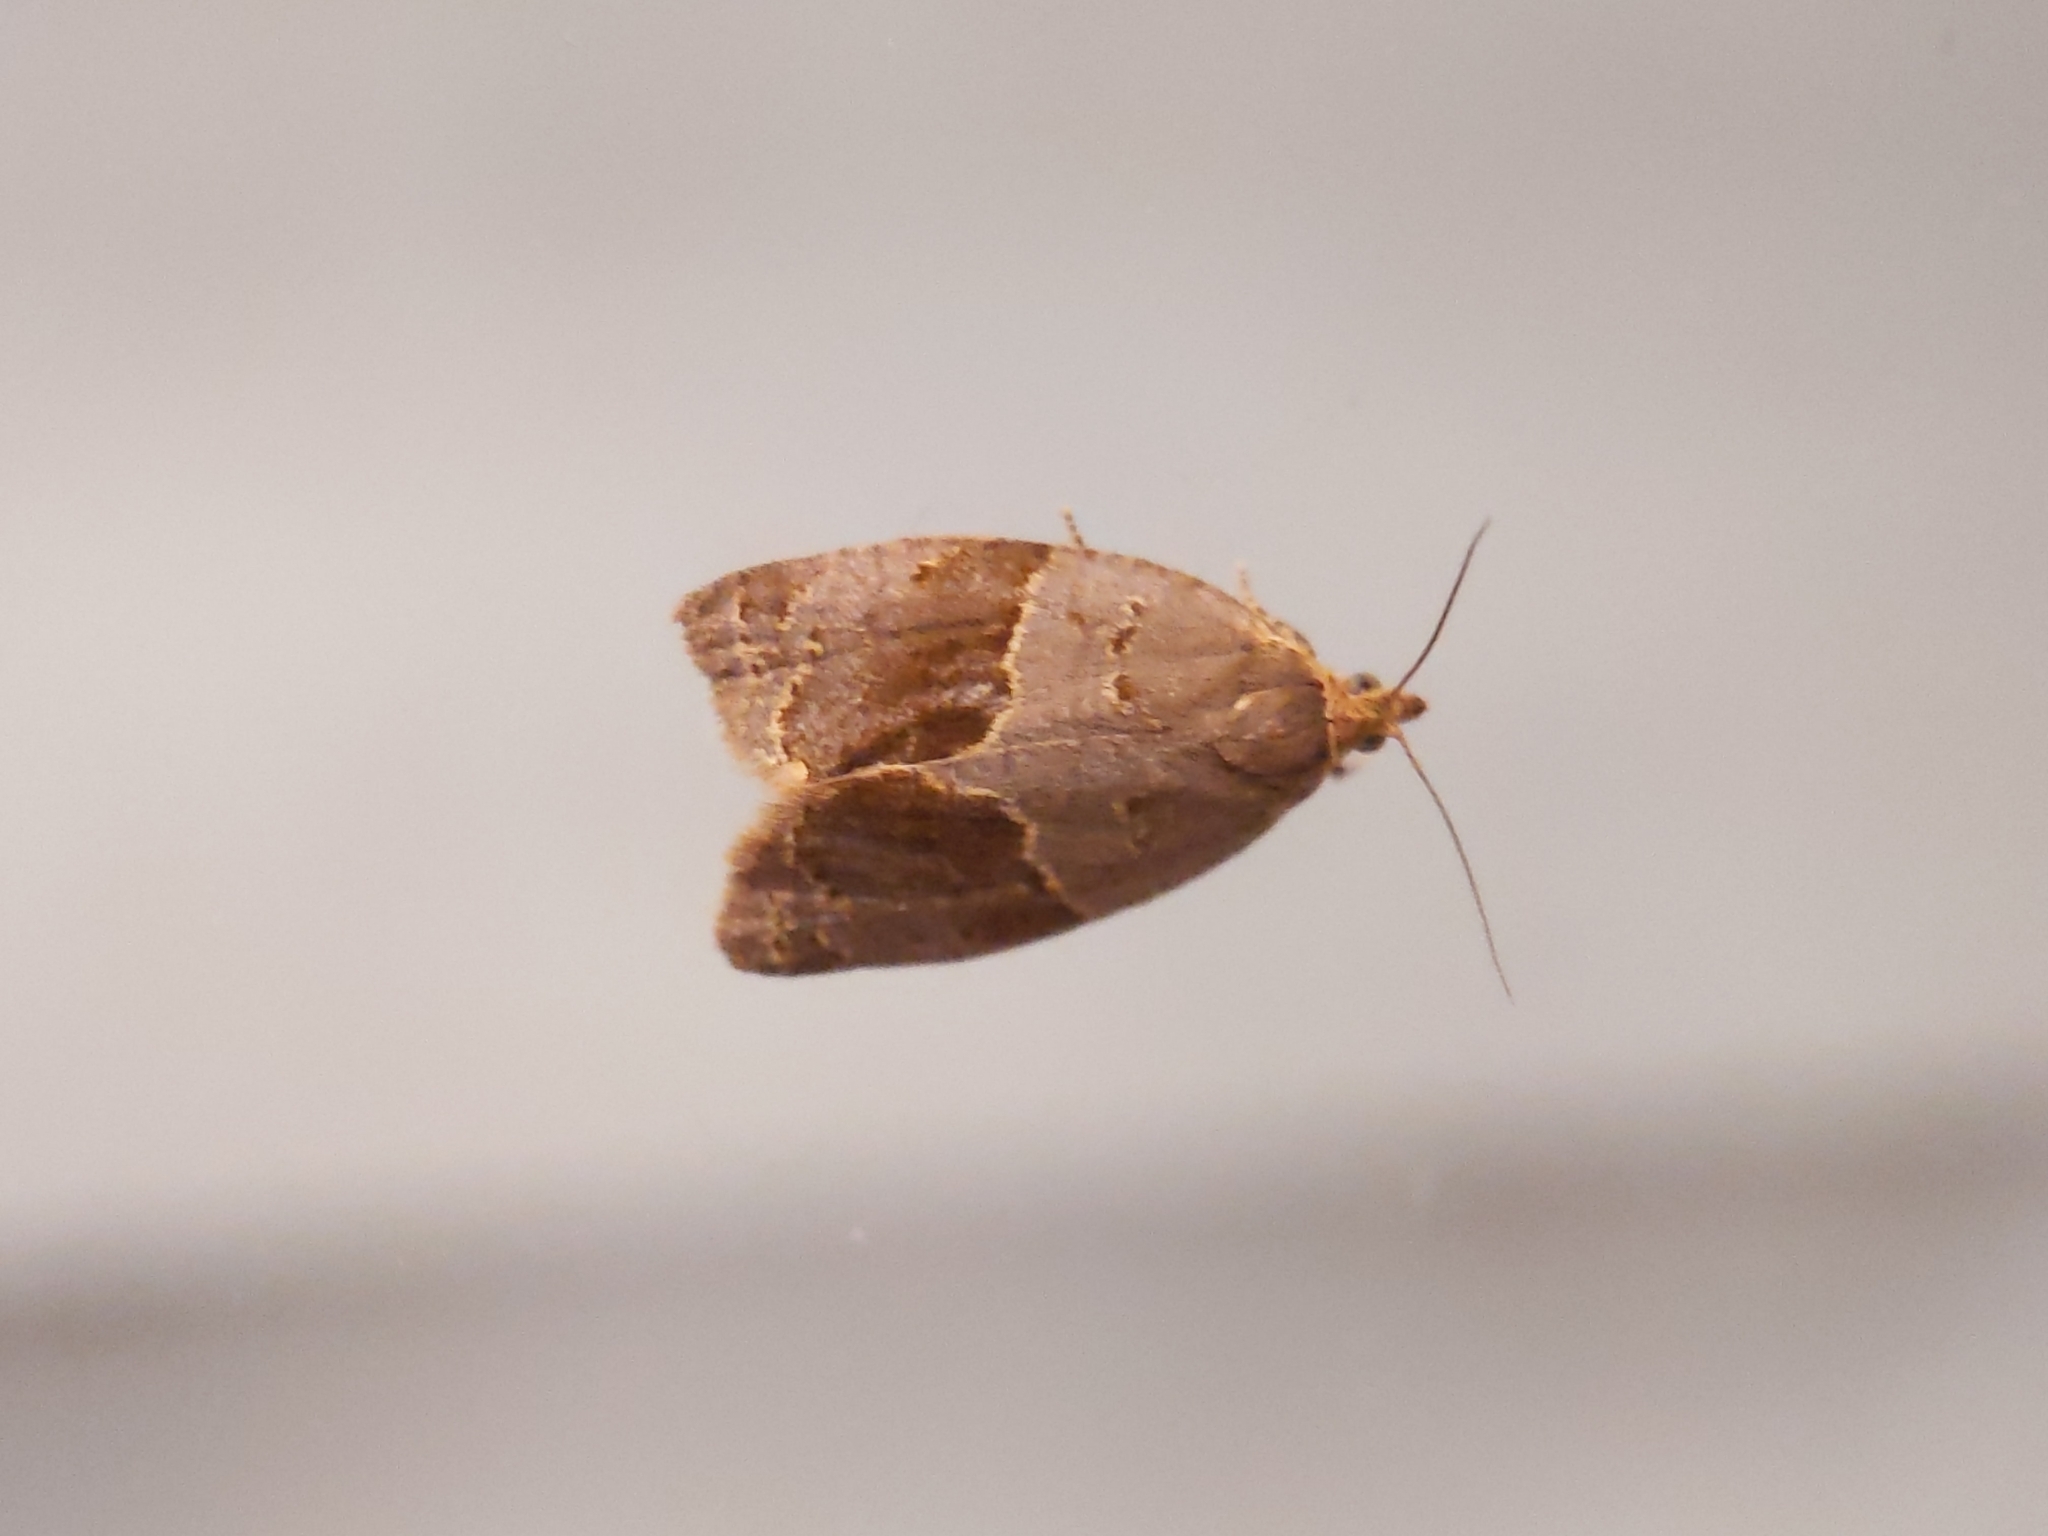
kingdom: Animalia
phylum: Arthropoda
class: Insecta
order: Lepidoptera
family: Tortricidae
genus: Clepsis
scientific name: Clepsis dumicolana
